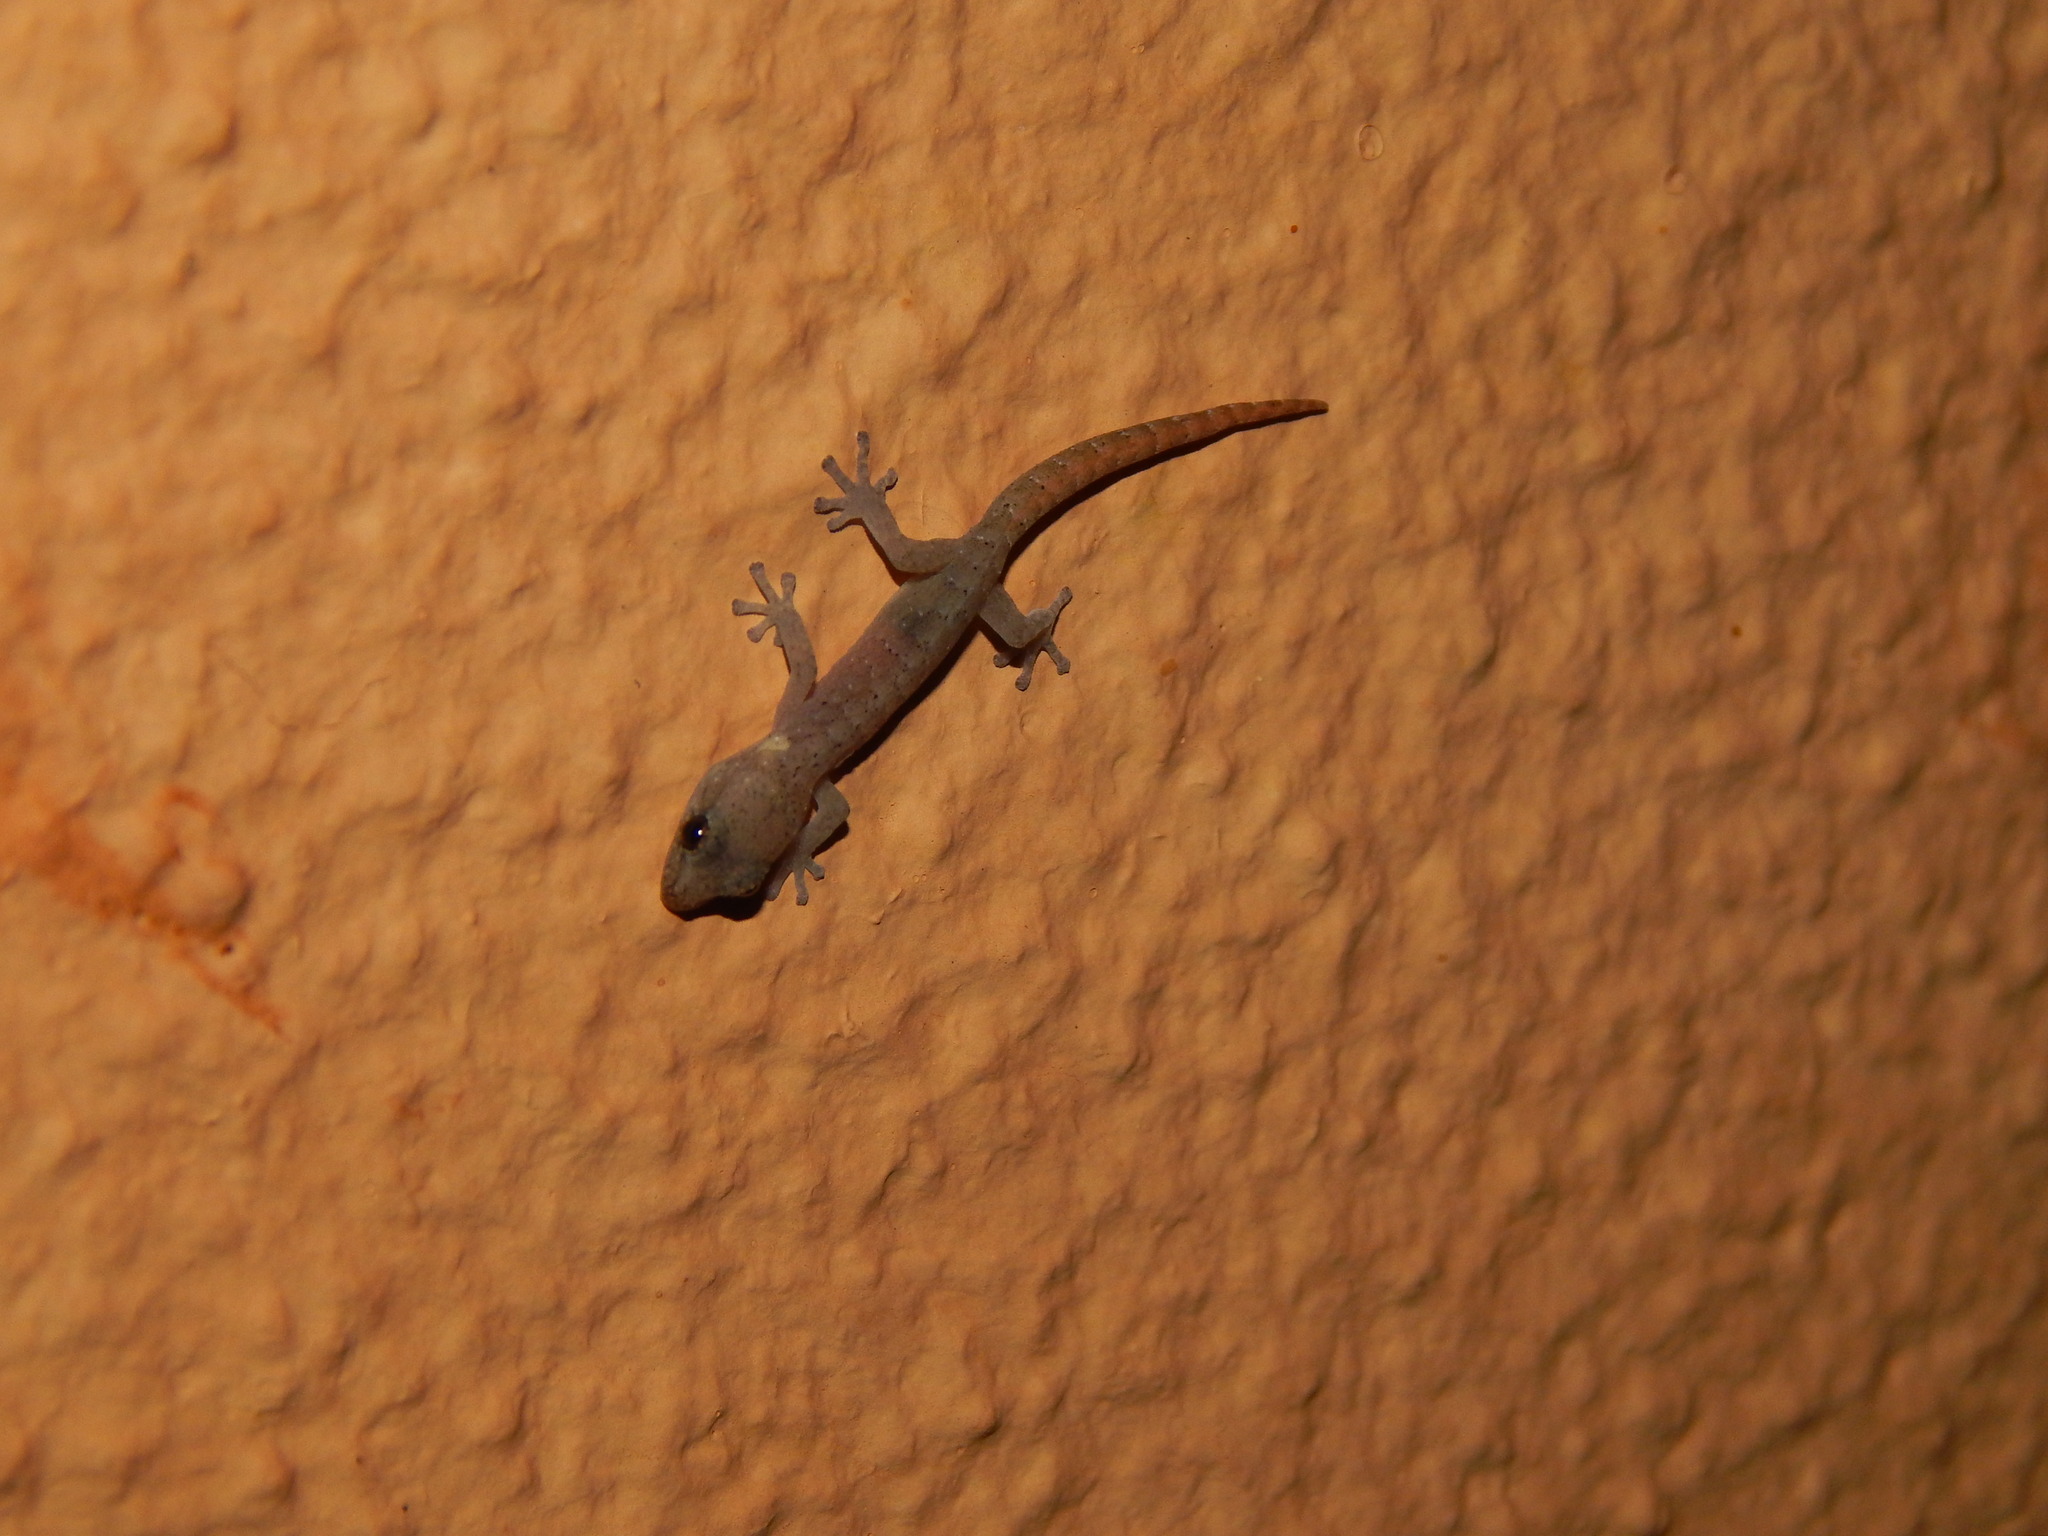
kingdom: Animalia
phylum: Chordata
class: Squamata
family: Gekkonidae
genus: Afrogecko
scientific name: Afrogecko porphyreus
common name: Marbled leaf-toed gecko
